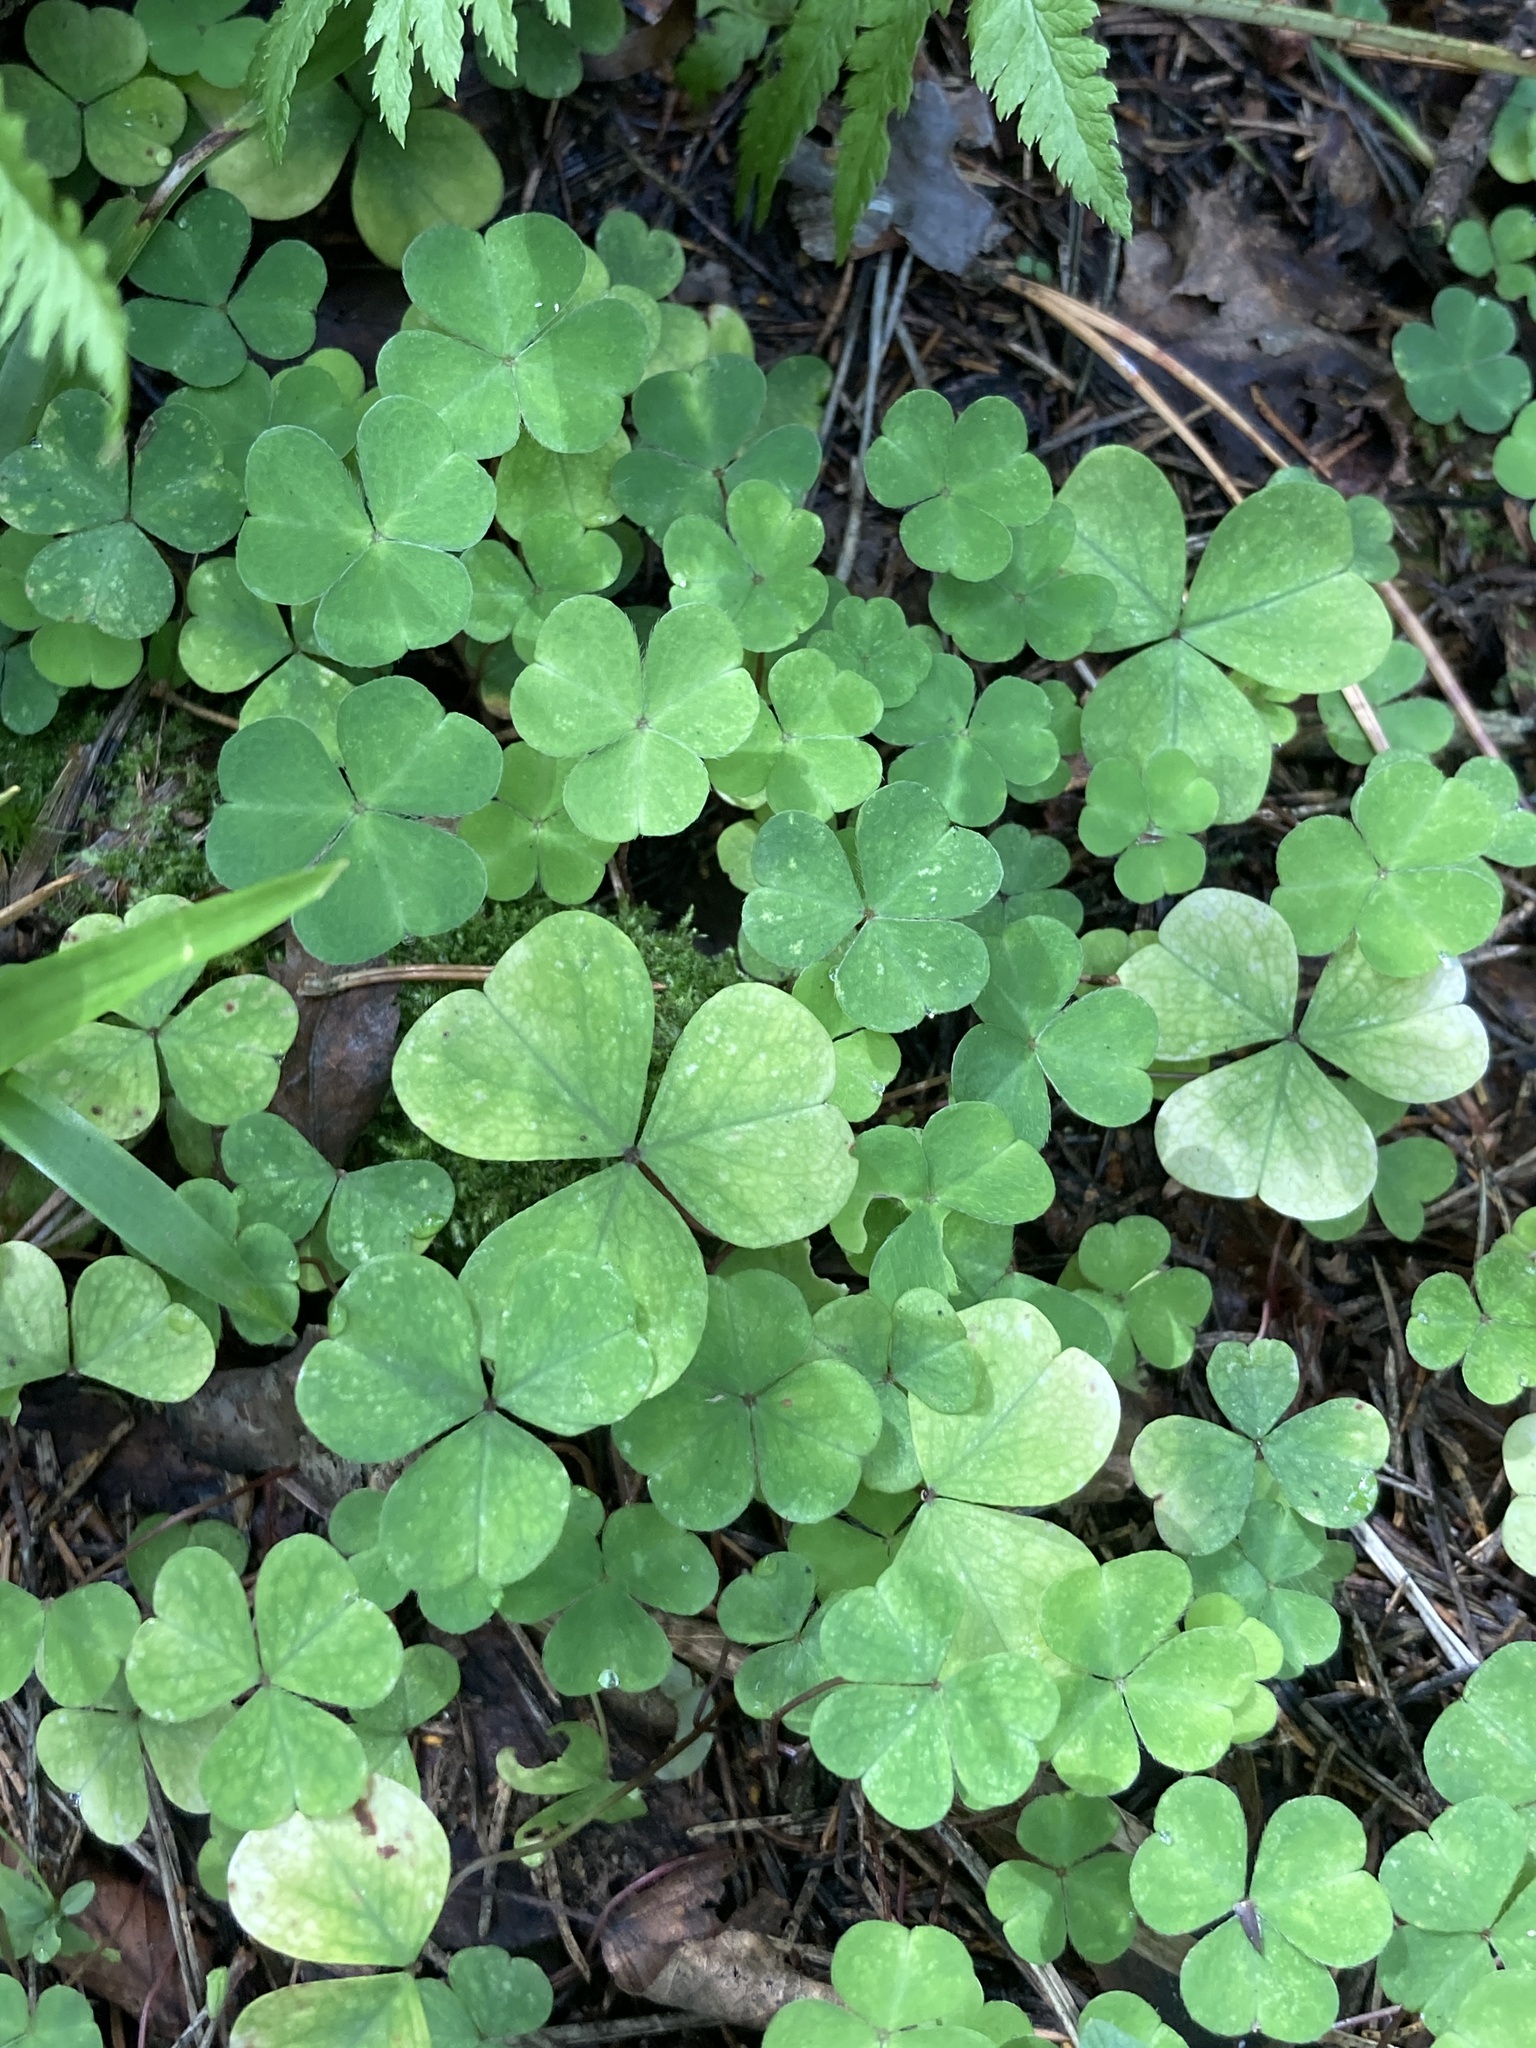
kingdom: Plantae
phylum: Tracheophyta
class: Magnoliopsida
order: Oxalidales
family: Oxalidaceae
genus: Oxalis
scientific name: Oxalis acetosella
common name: Wood-sorrel
